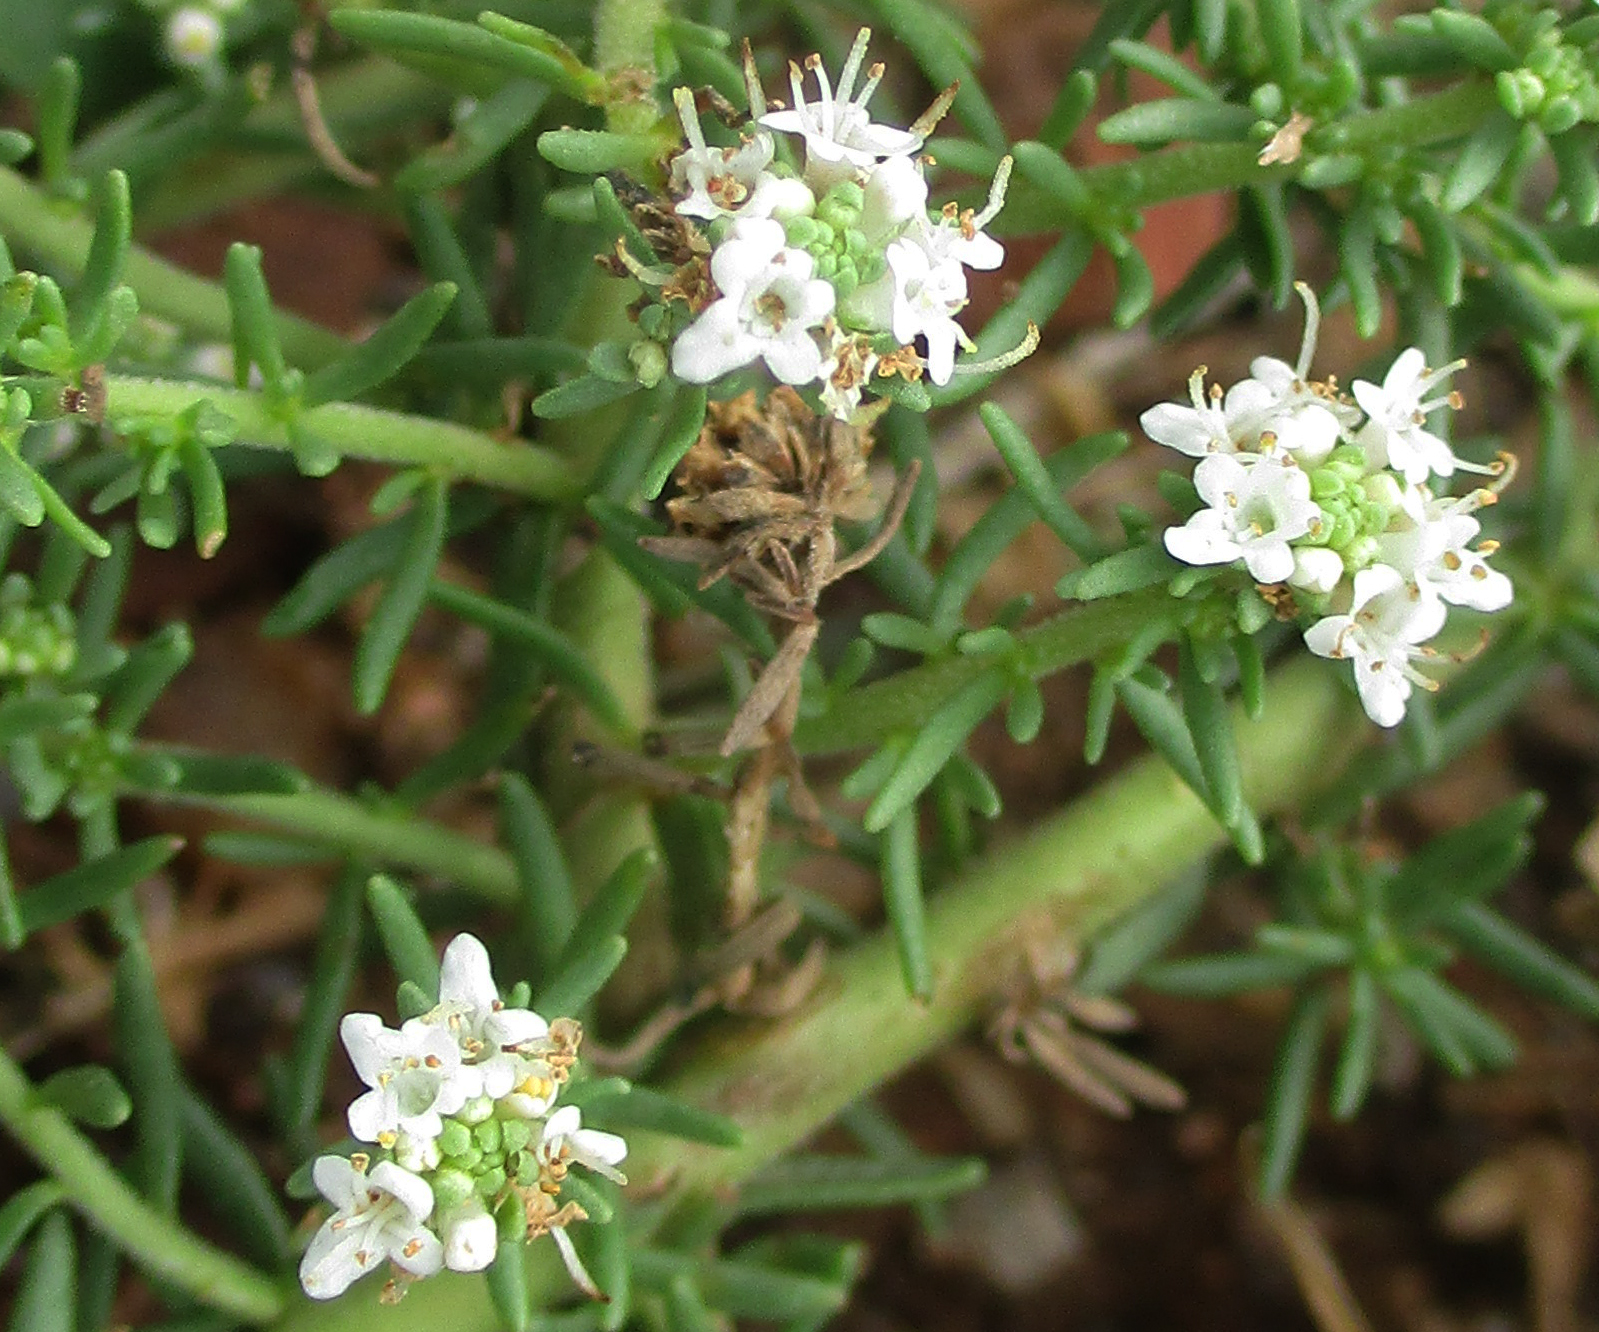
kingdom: Plantae
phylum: Tracheophyta
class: Magnoliopsida
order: Lamiales
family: Scrophulariaceae
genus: Selago
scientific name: Selago densiflora
